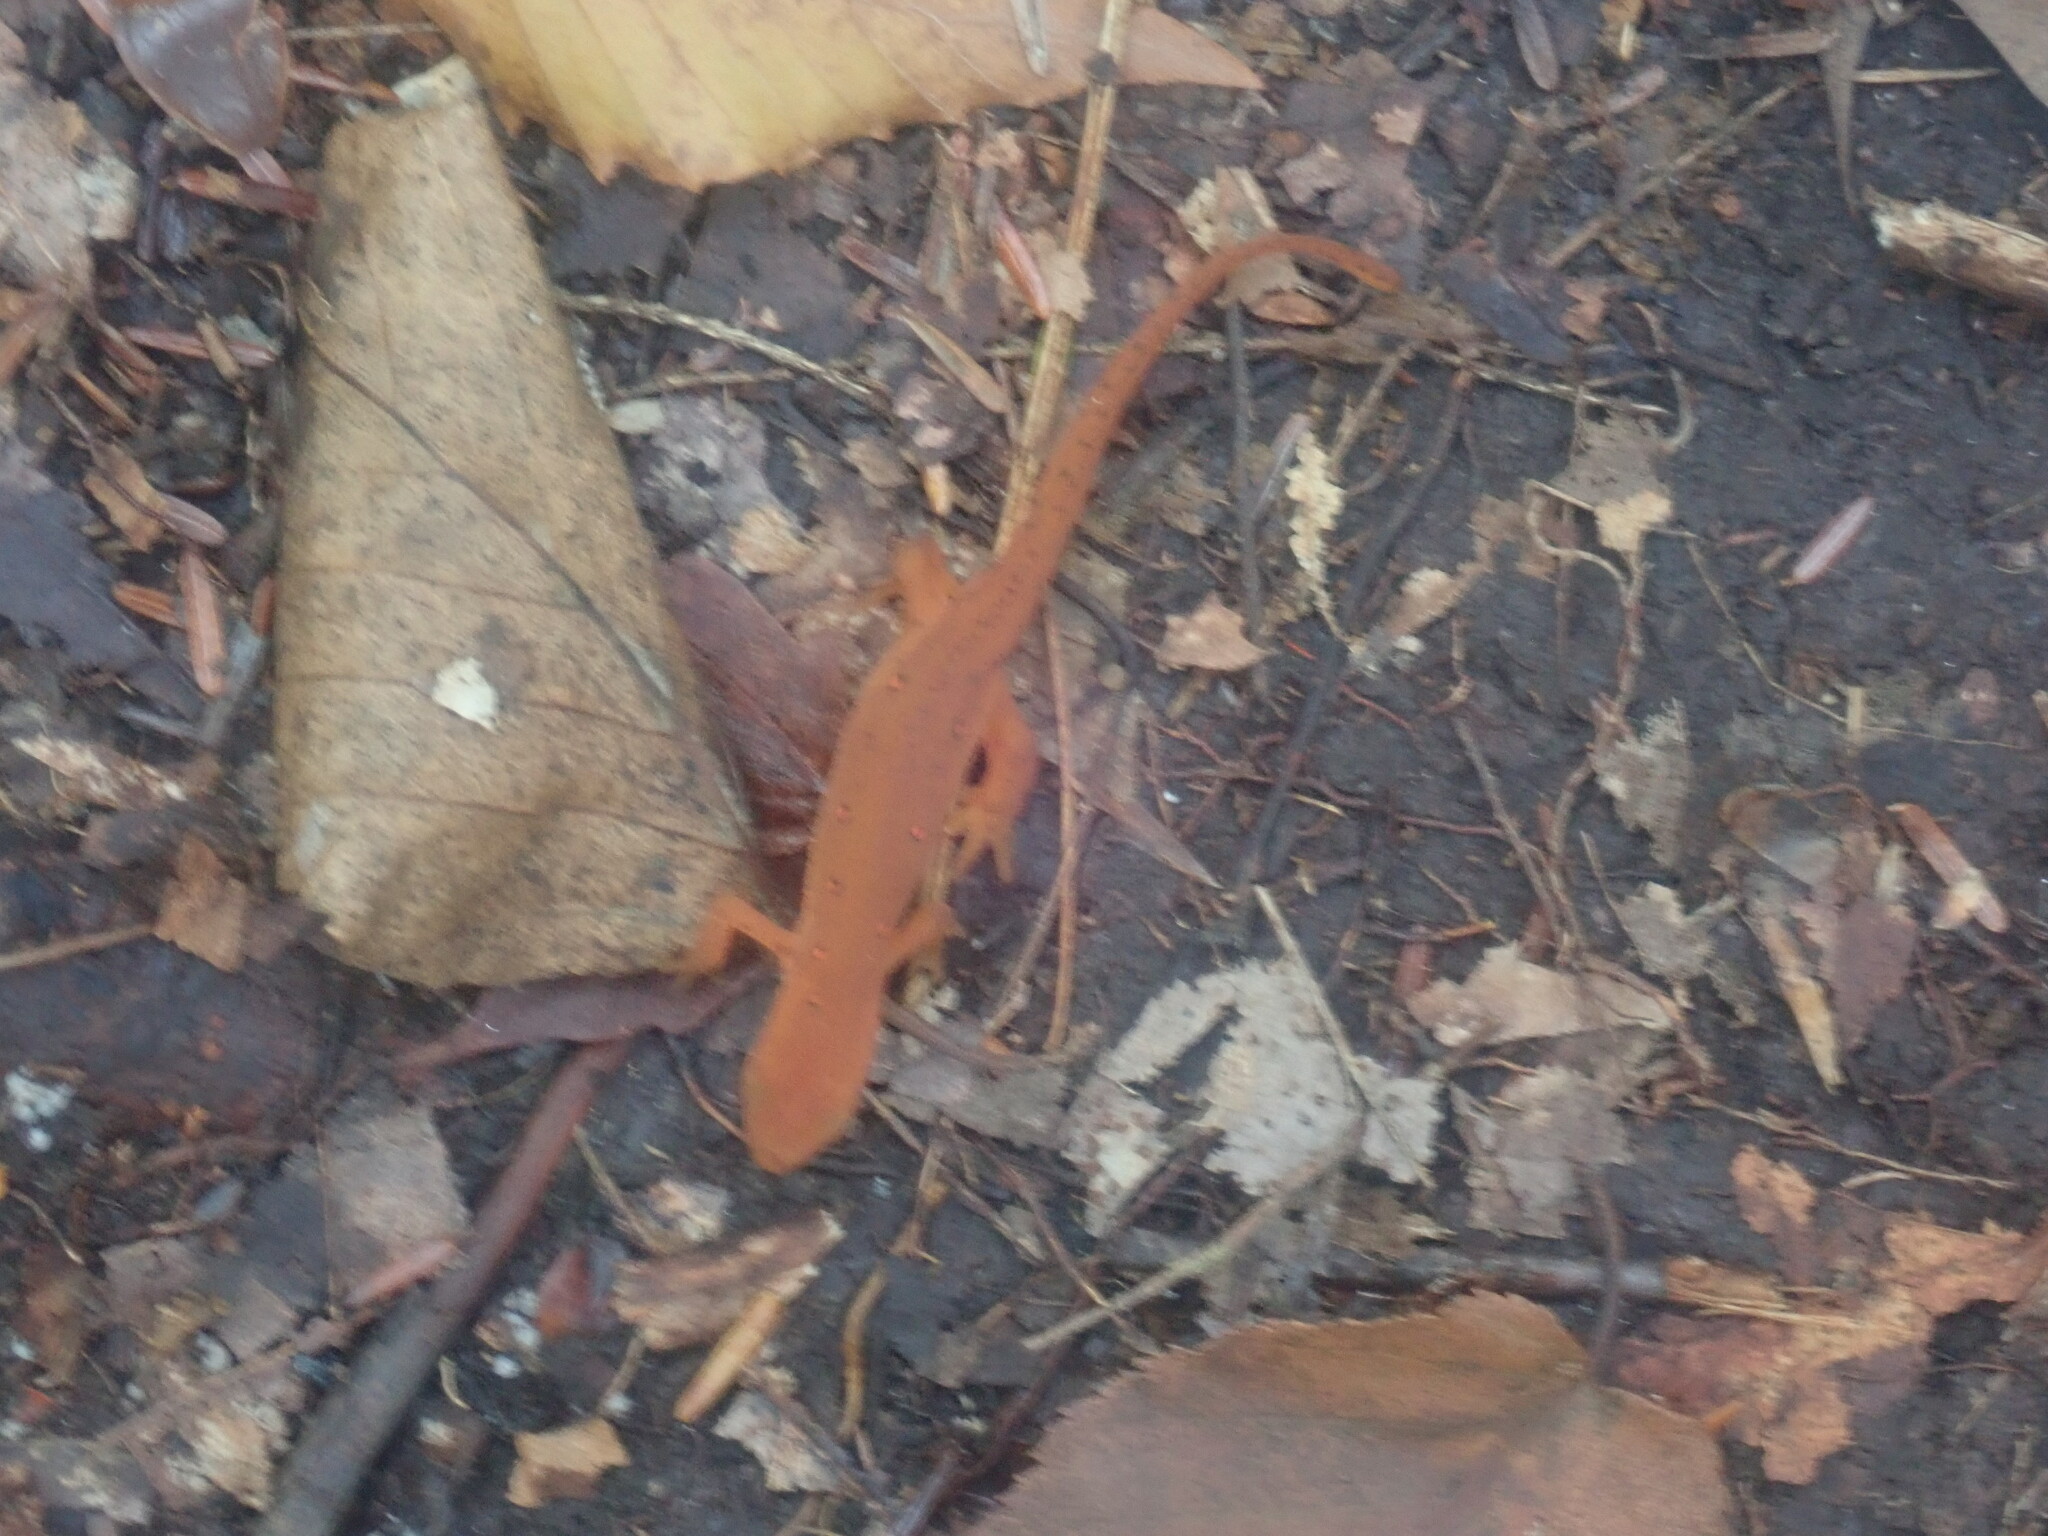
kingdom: Animalia
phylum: Chordata
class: Amphibia
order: Caudata
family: Salamandridae
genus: Notophthalmus
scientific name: Notophthalmus viridescens
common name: Eastern newt
